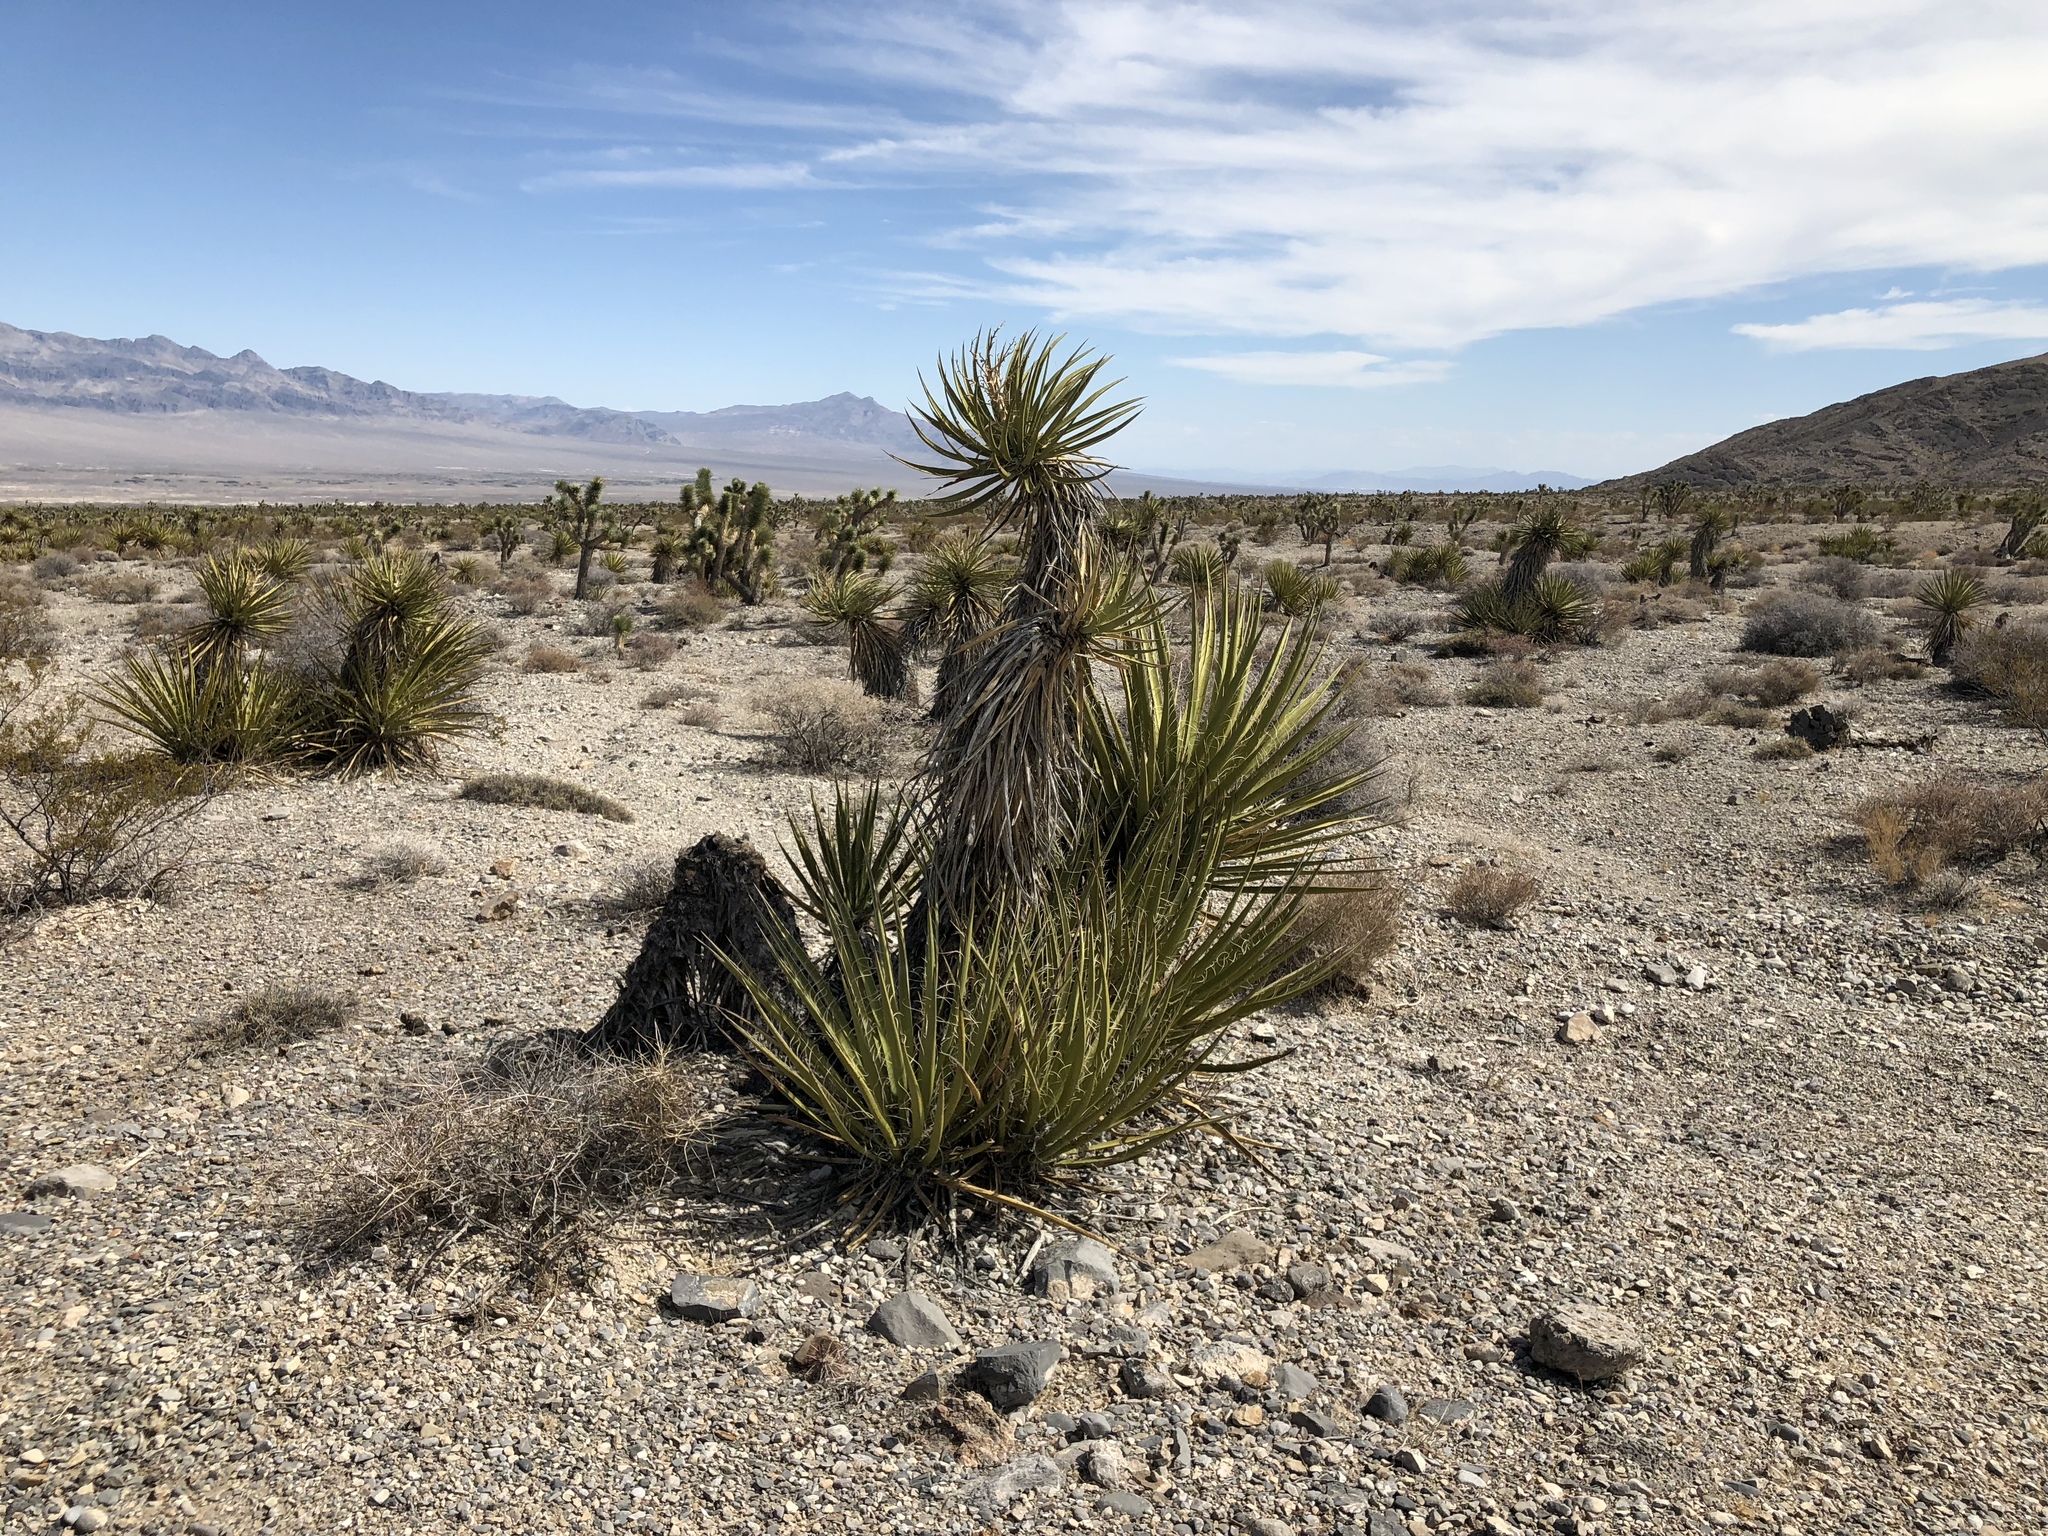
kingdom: Plantae
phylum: Tracheophyta
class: Liliopsida
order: Asparagales
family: Asparagaceae
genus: Yucca
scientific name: Yucca schidigera
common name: Mojave yucca
